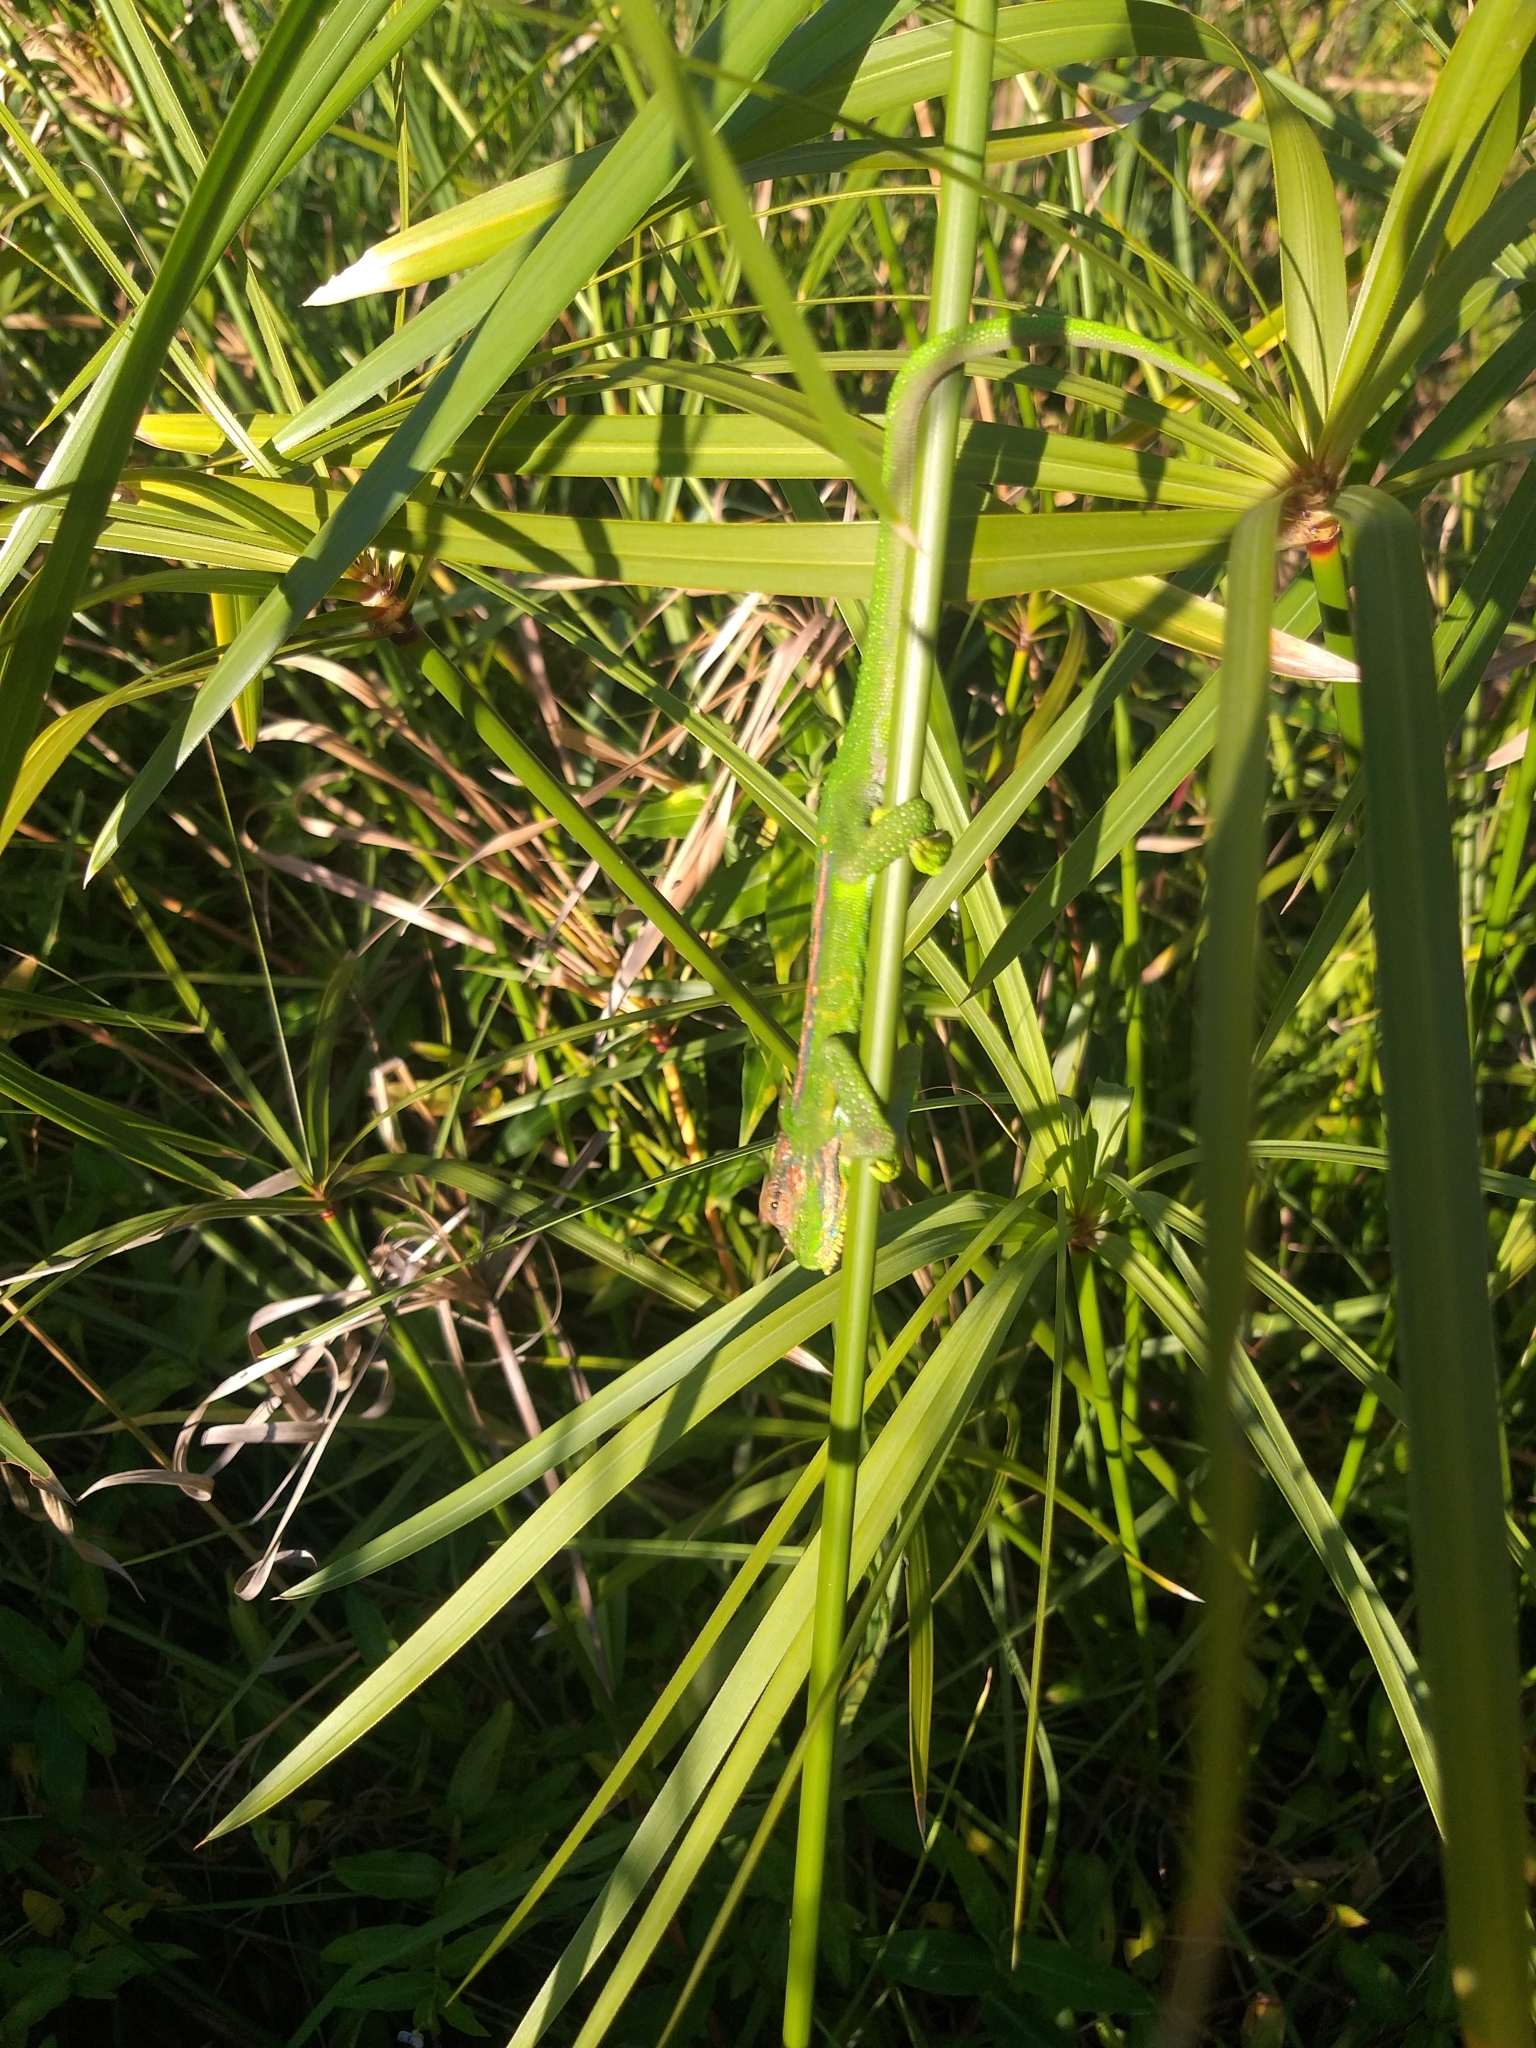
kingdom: Animalia
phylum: Chordata
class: Squamata
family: Chamaeleonidae
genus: Bradypodion
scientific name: Bradypodion pumilum
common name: Cape dwarf chameleon
